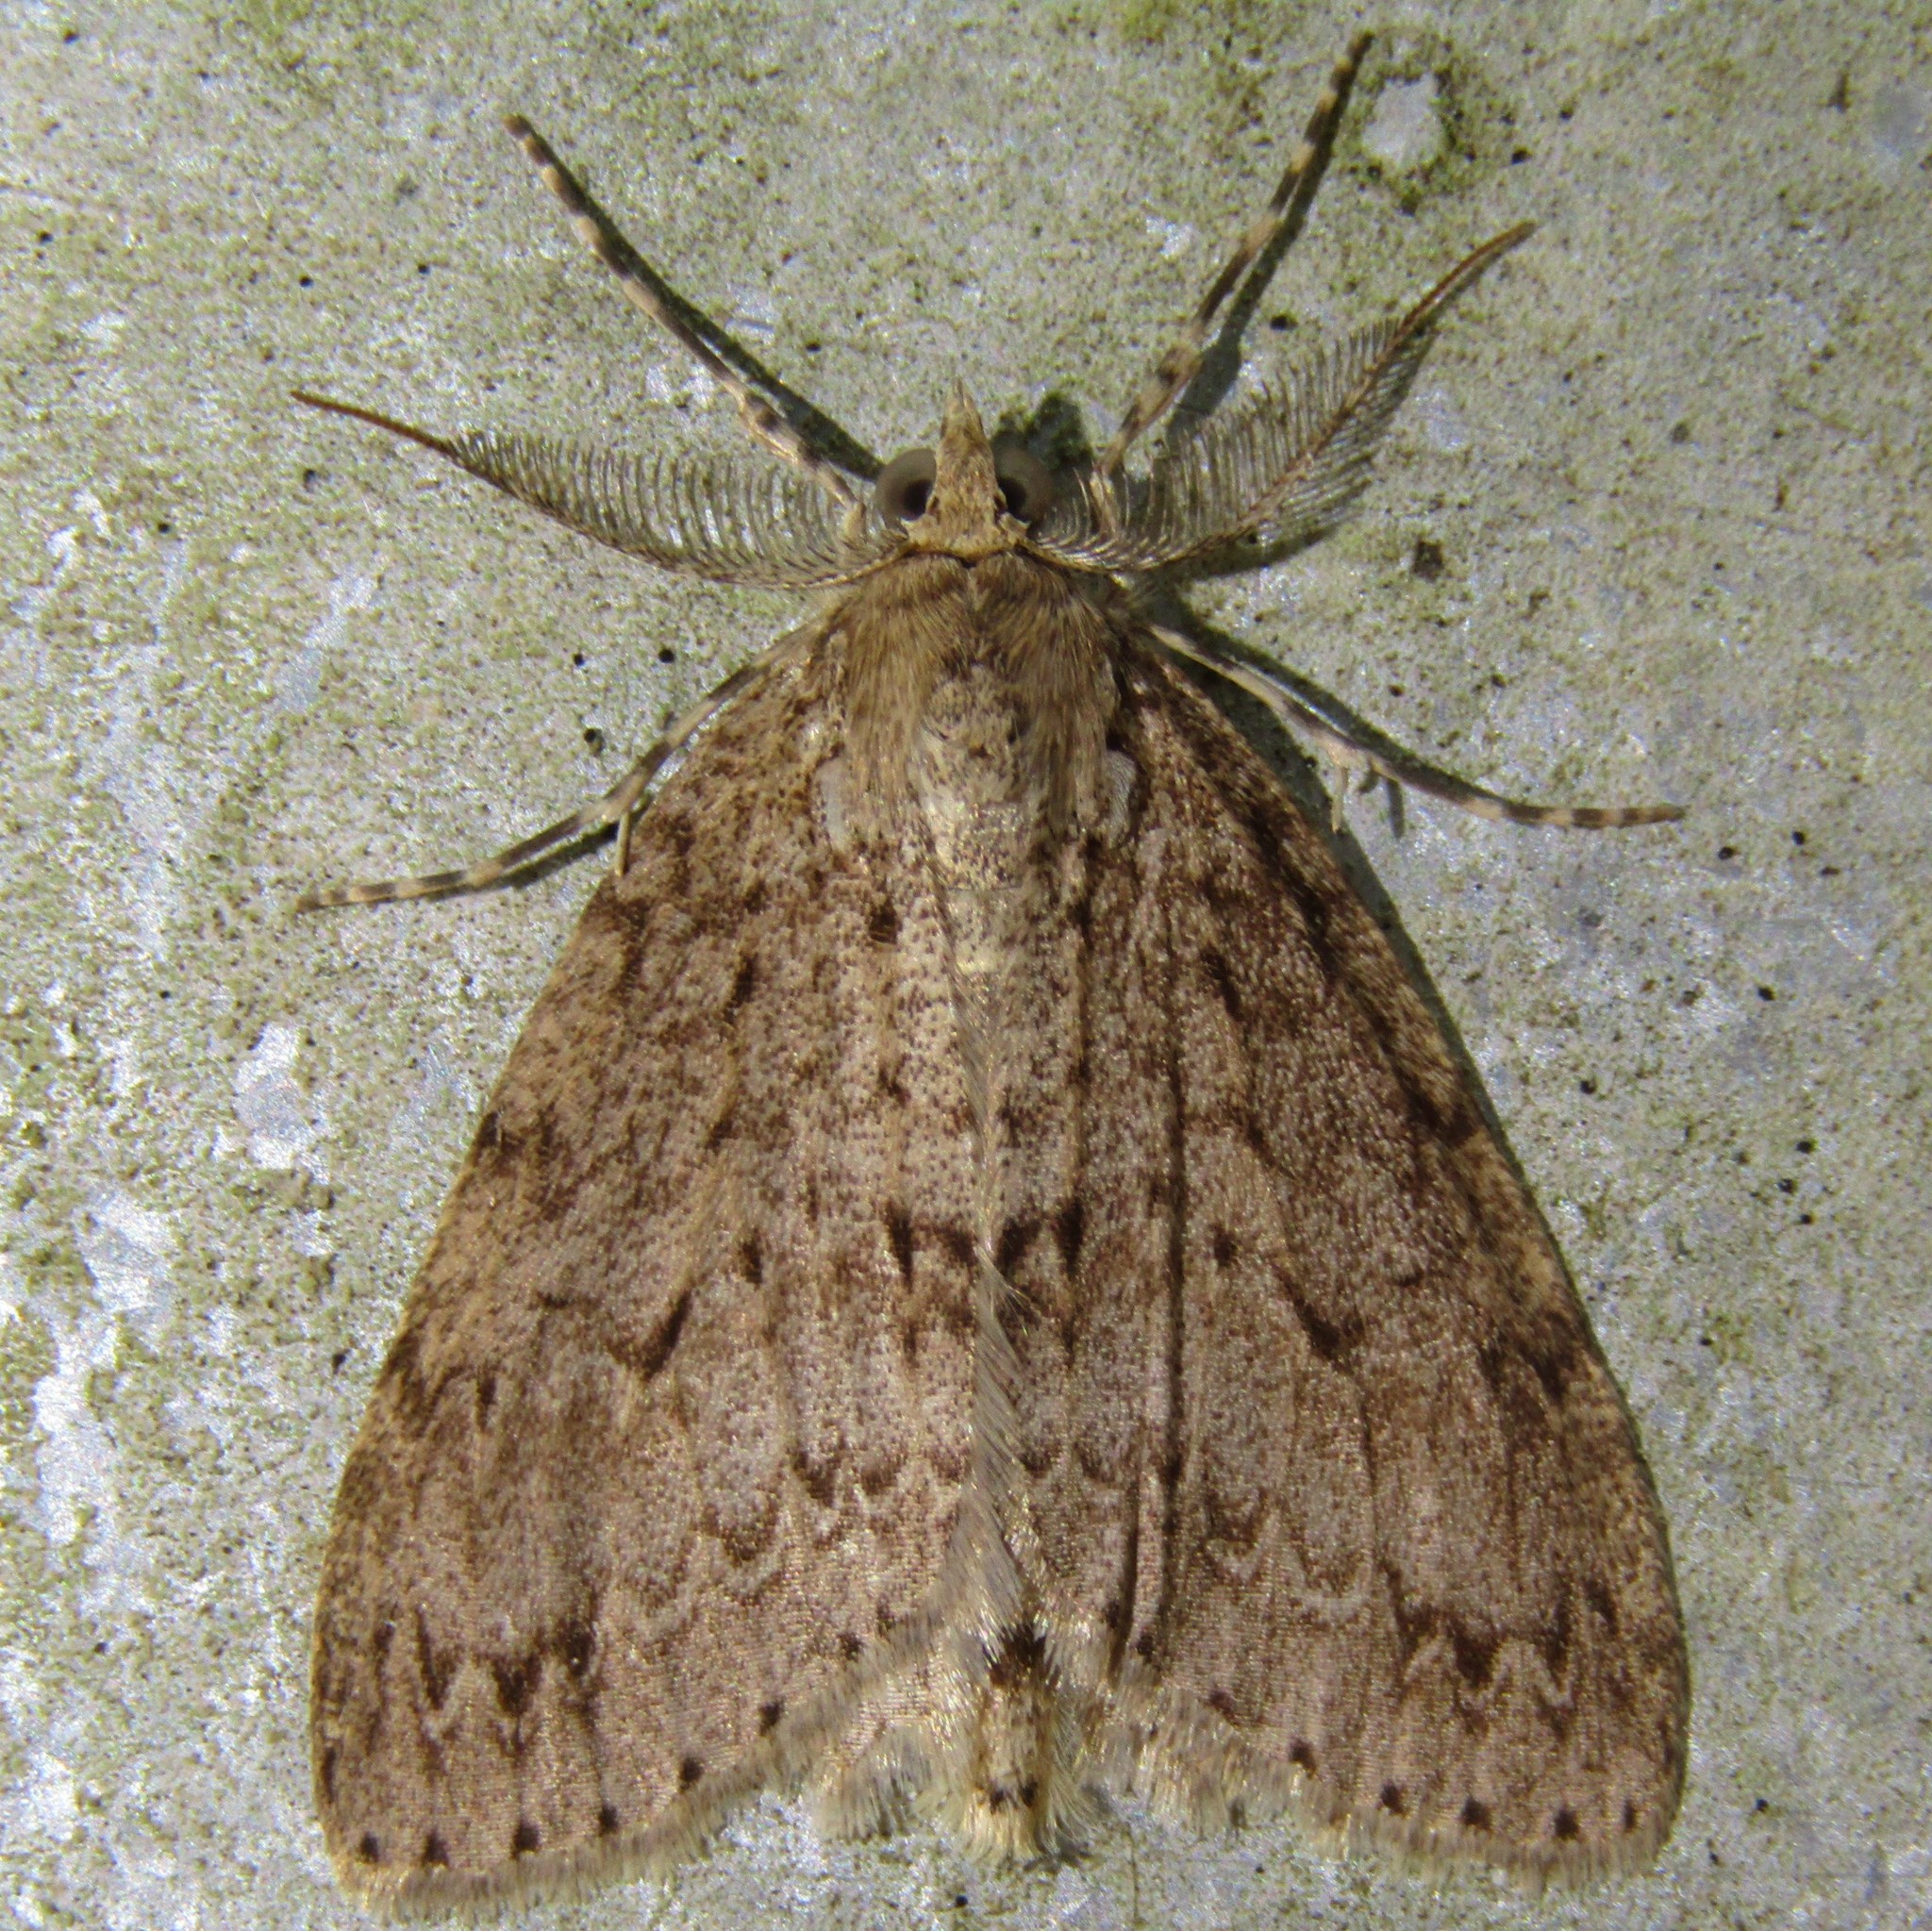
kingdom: Animalia
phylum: Arthropoda
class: Insecta
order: Lepidoptera
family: Geometridae
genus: Pseudocoremia
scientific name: Pseudocoremia fenerata
